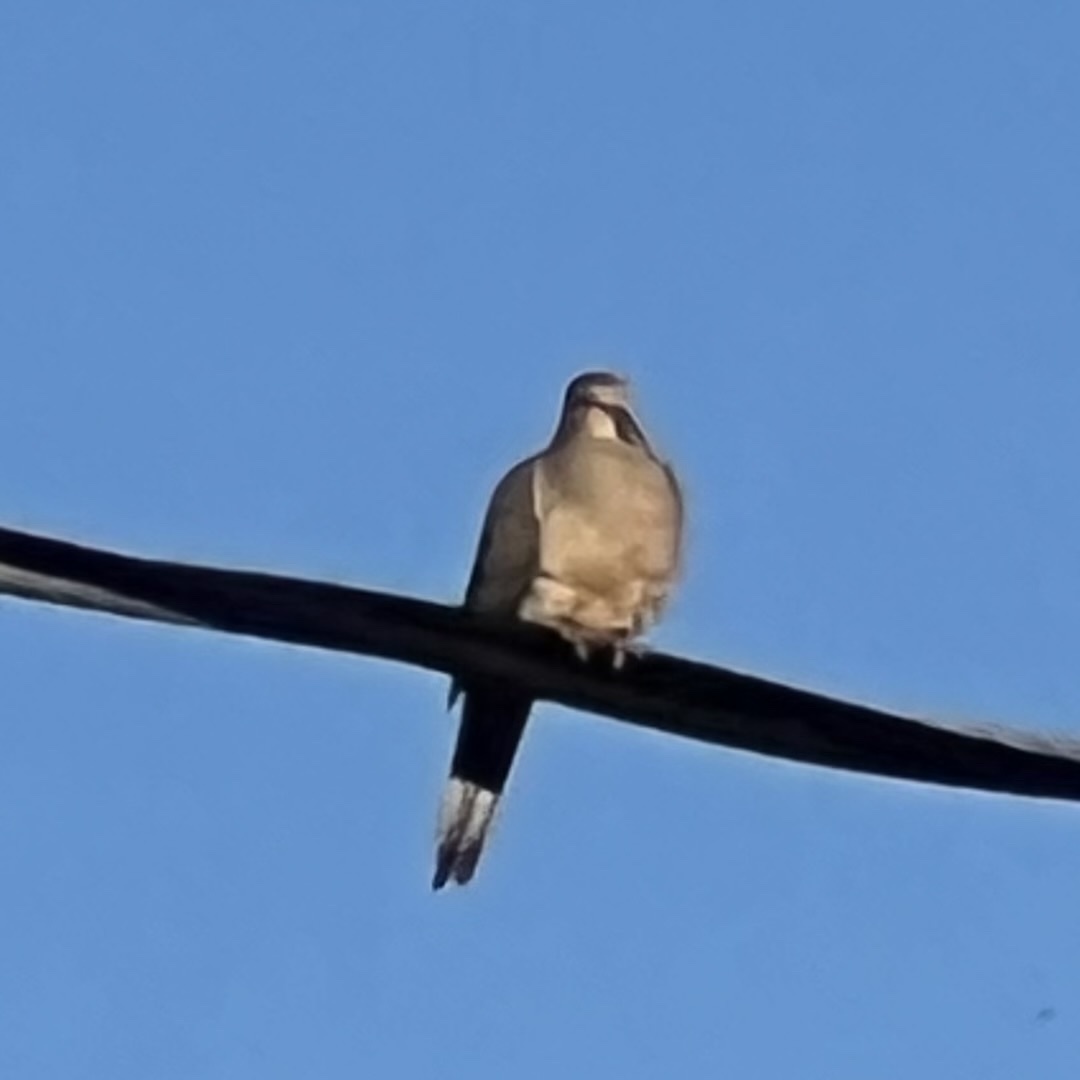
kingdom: Animalia
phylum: Chordata
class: Aves
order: Columbiformes
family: Columbidae
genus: Zenaida
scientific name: Zenaida macroura
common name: Mourning dove
